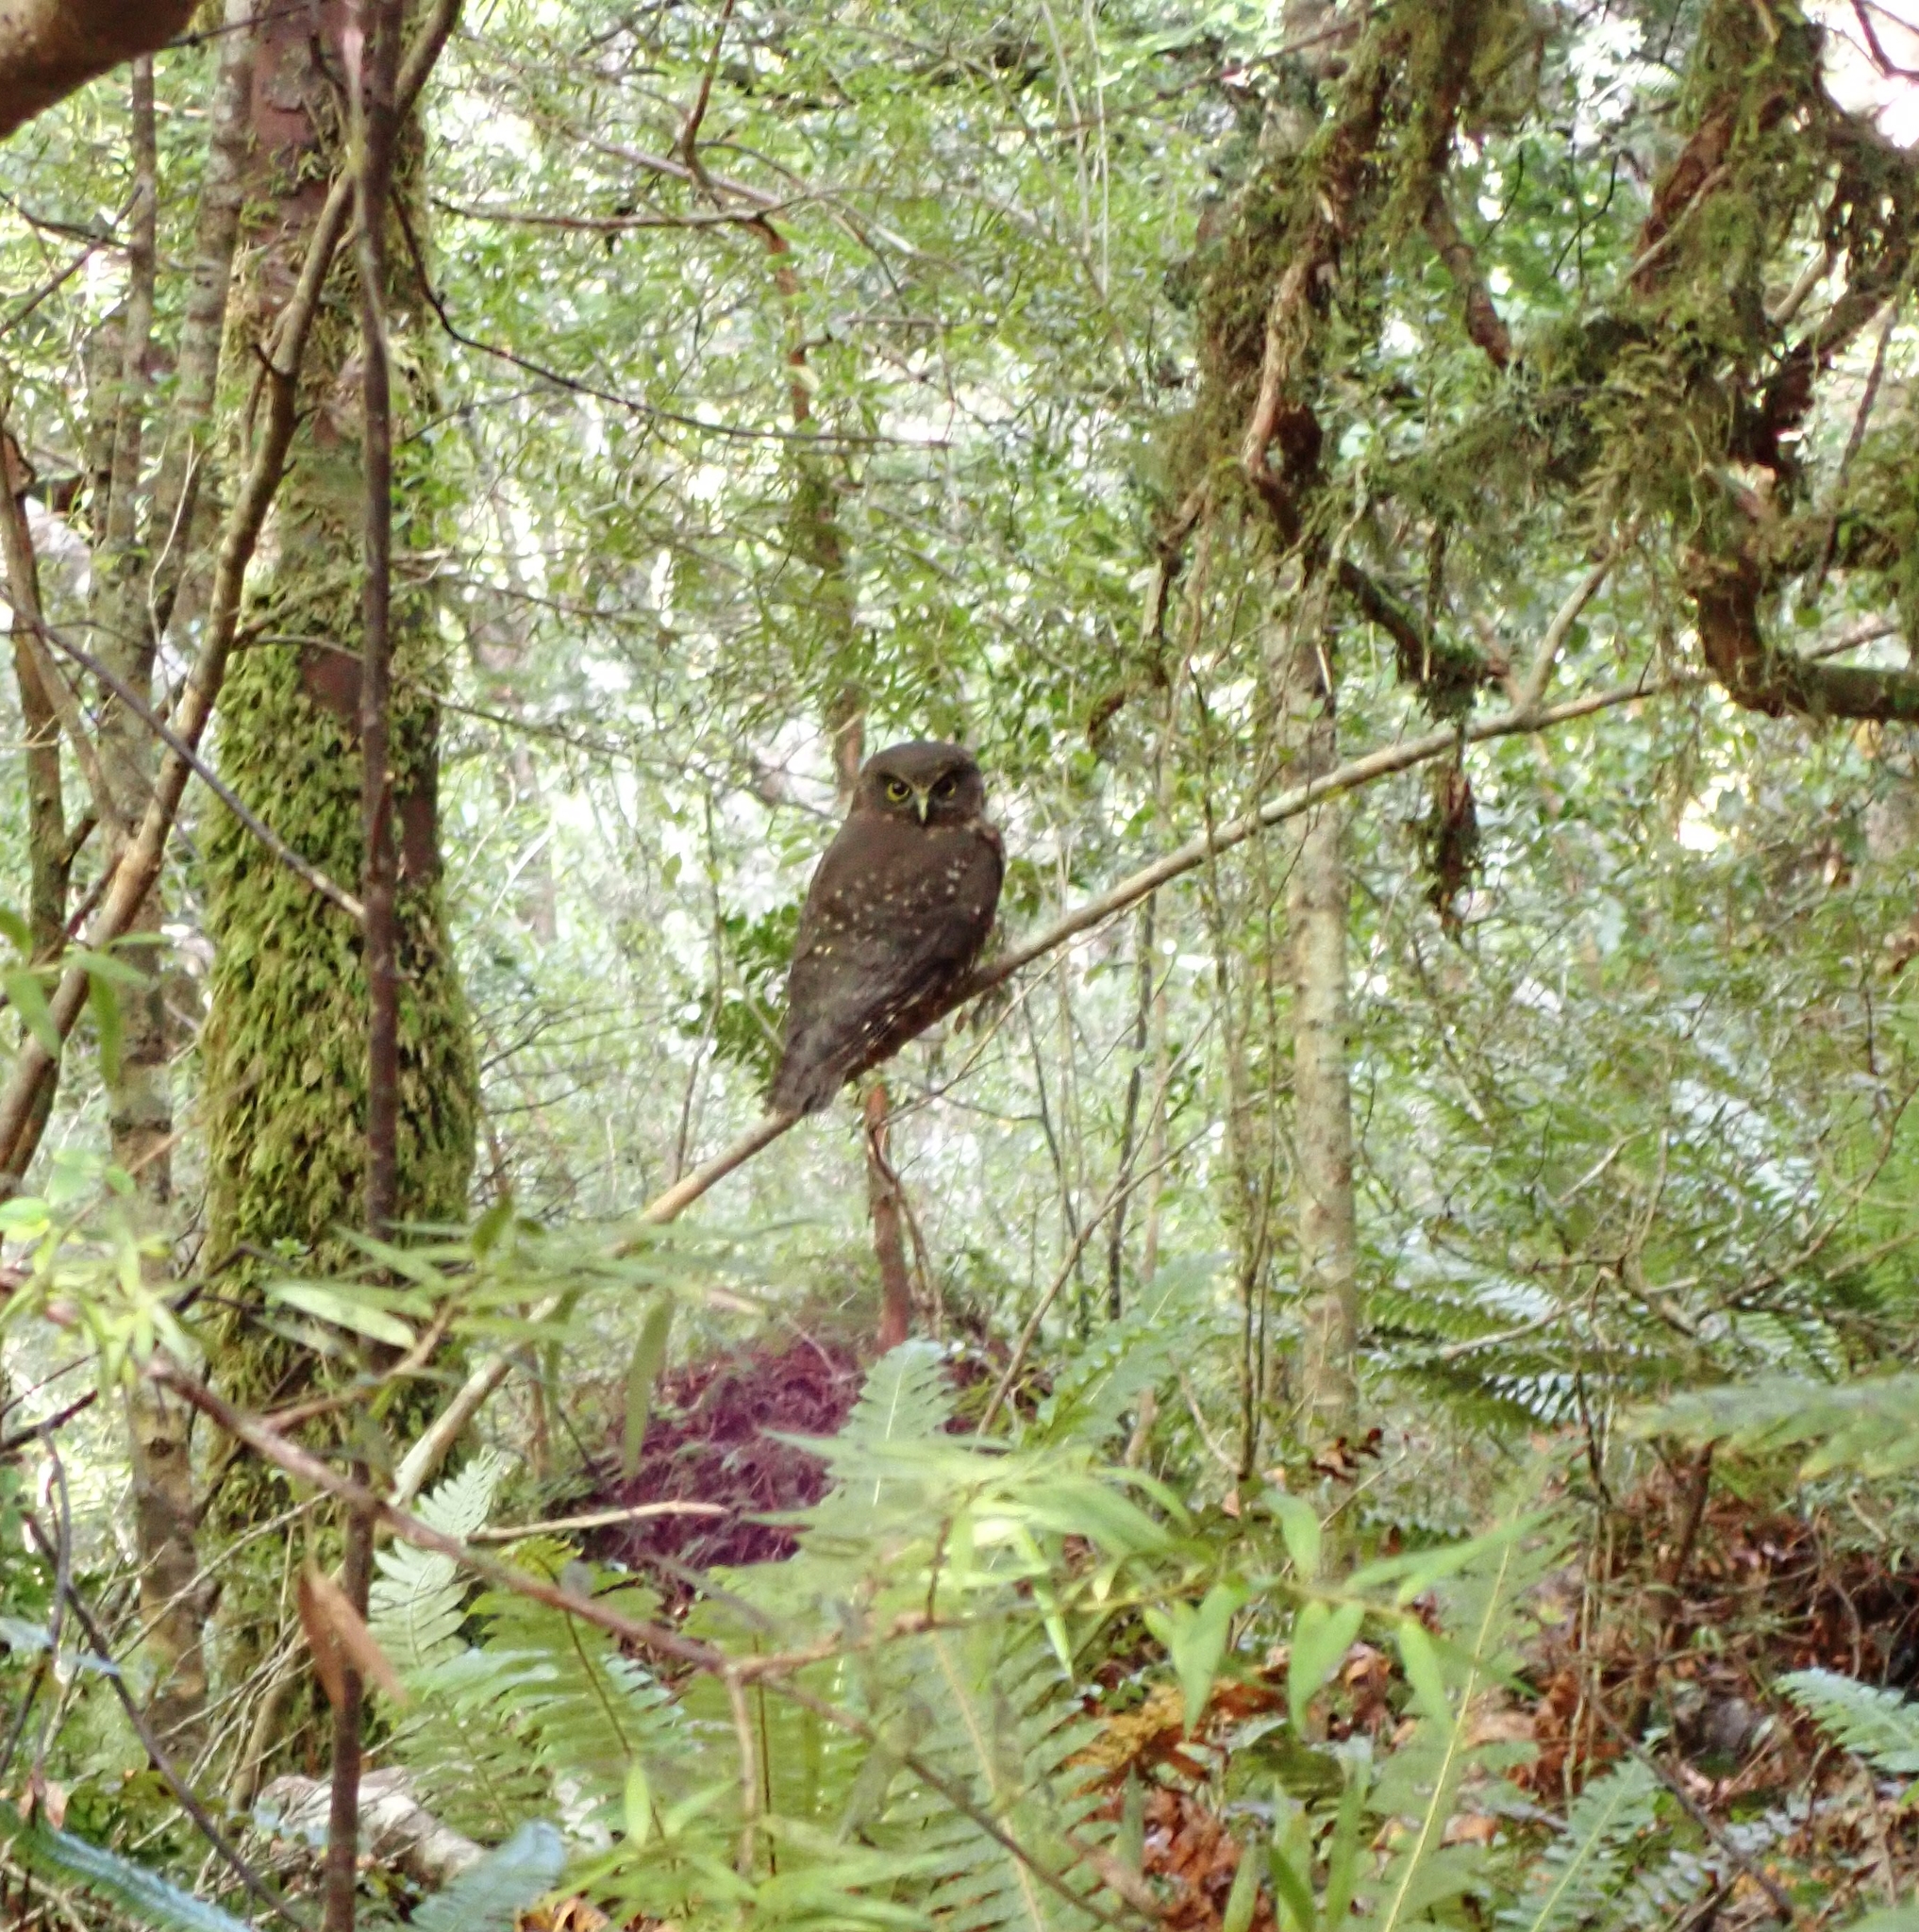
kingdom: Animalia
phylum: Chordata
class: Aves
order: Strigiformes
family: Strigidae
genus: Ninox
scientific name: Ninox novaeseelandiae
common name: Morepork
